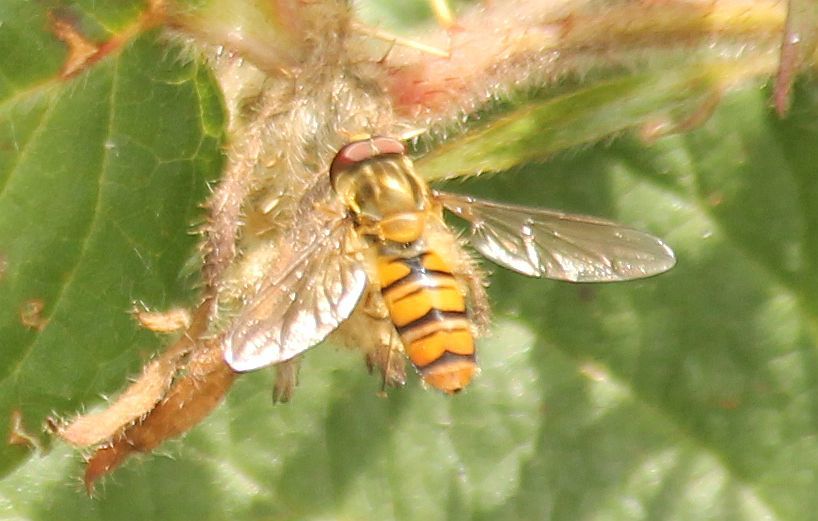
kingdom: Animalia
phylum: Arthropoda
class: Insecta
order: Diptera
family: Syrphidae
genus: Episyrphus
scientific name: Episyrphus balteatus
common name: Marmalade hoverfly
